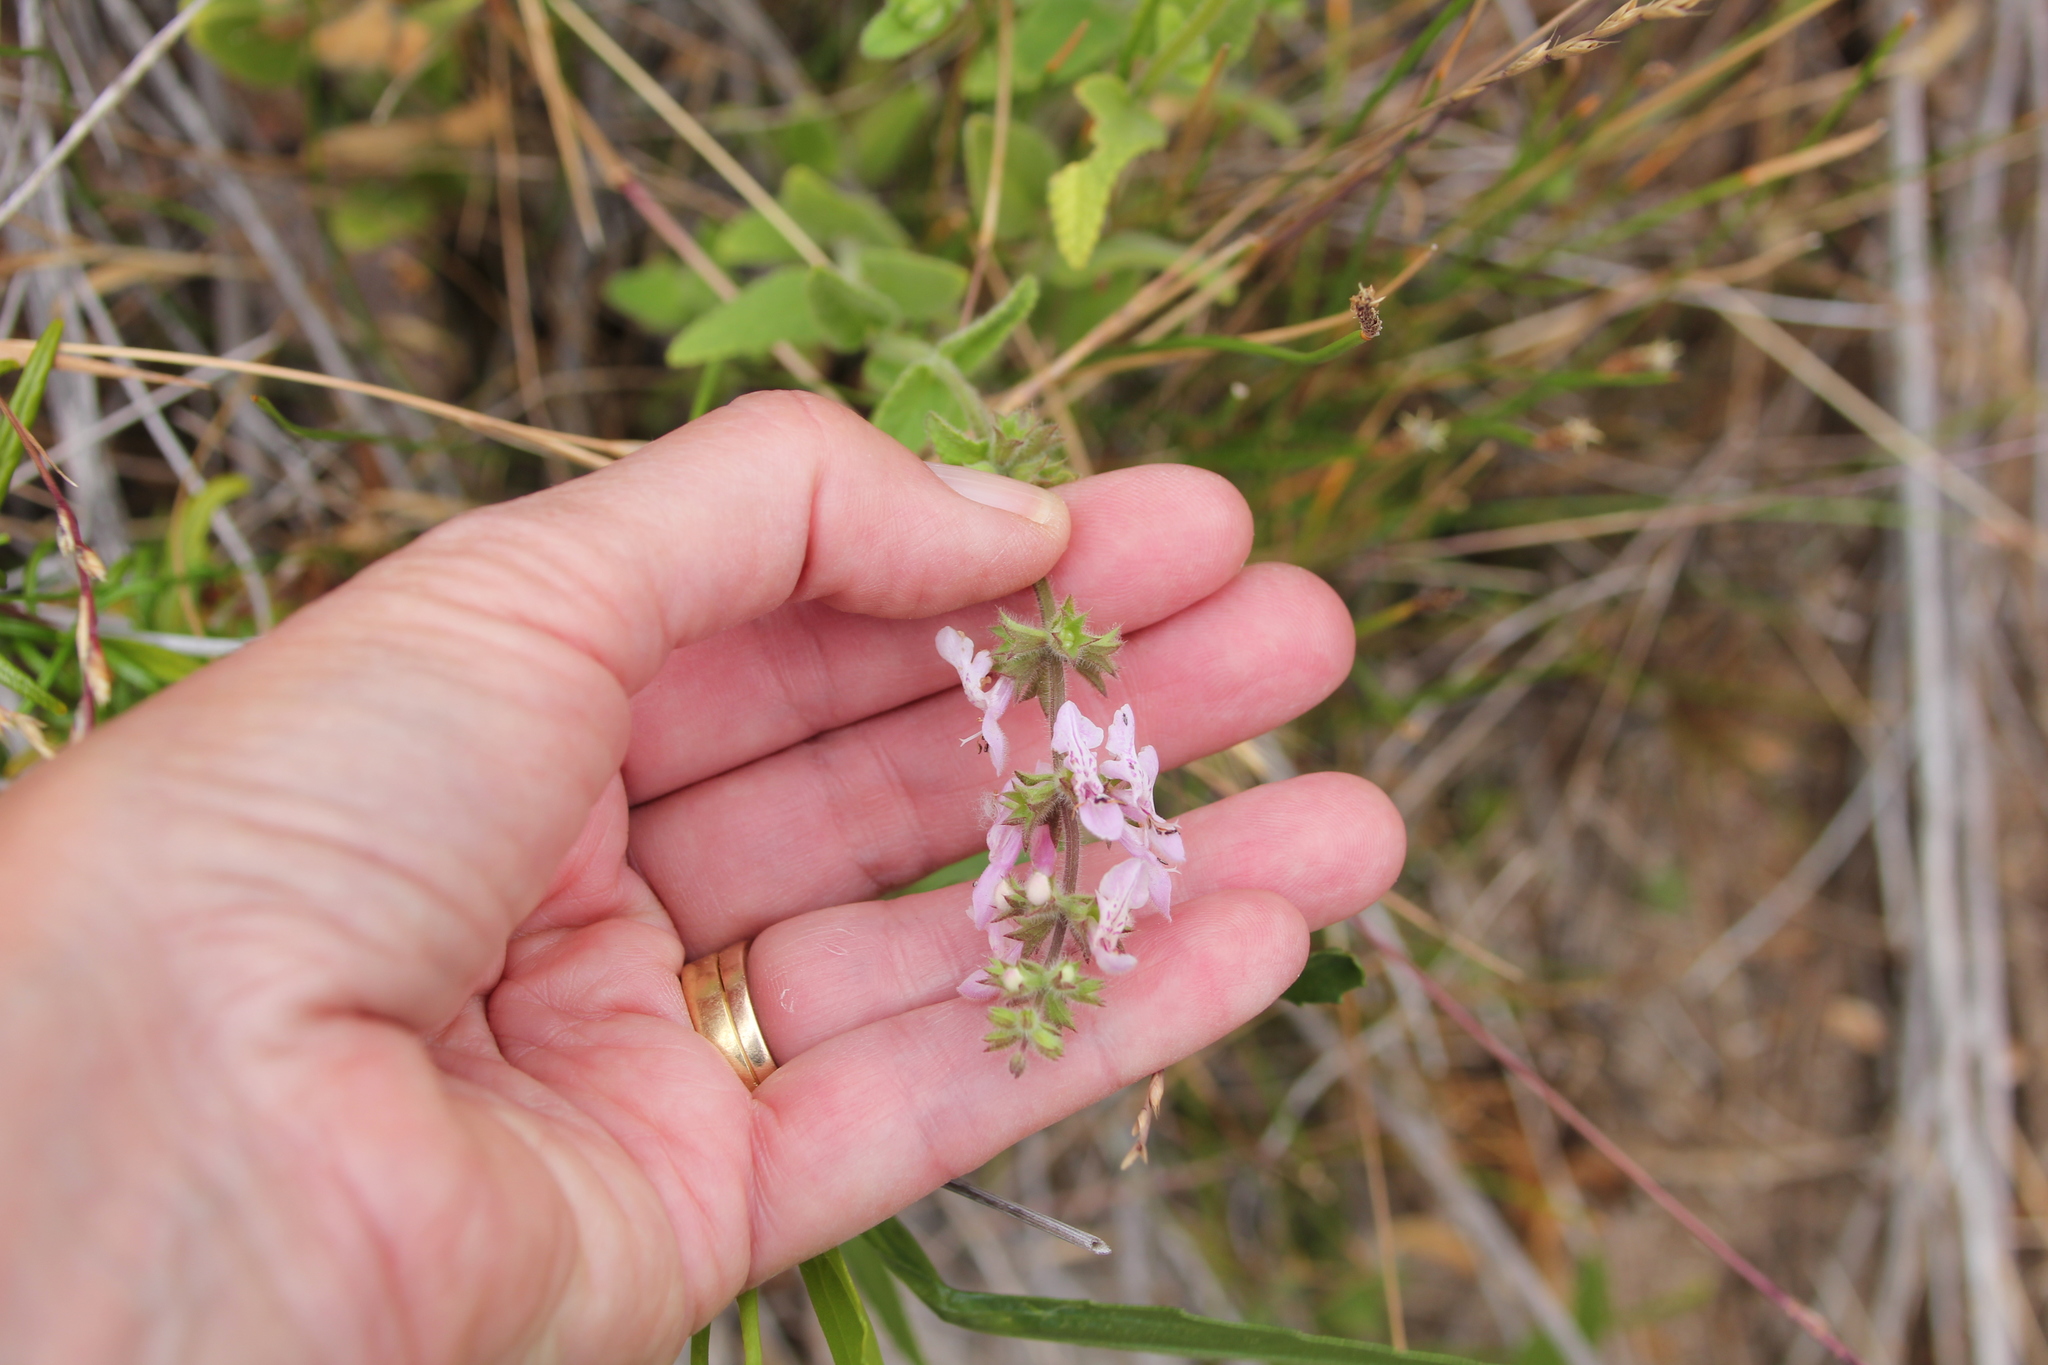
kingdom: Plantae
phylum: Tracheophyta
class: Magnoliopsida
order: Lamiales
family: Lamiaceae
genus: Stachys
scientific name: Stachys stebbinsii
